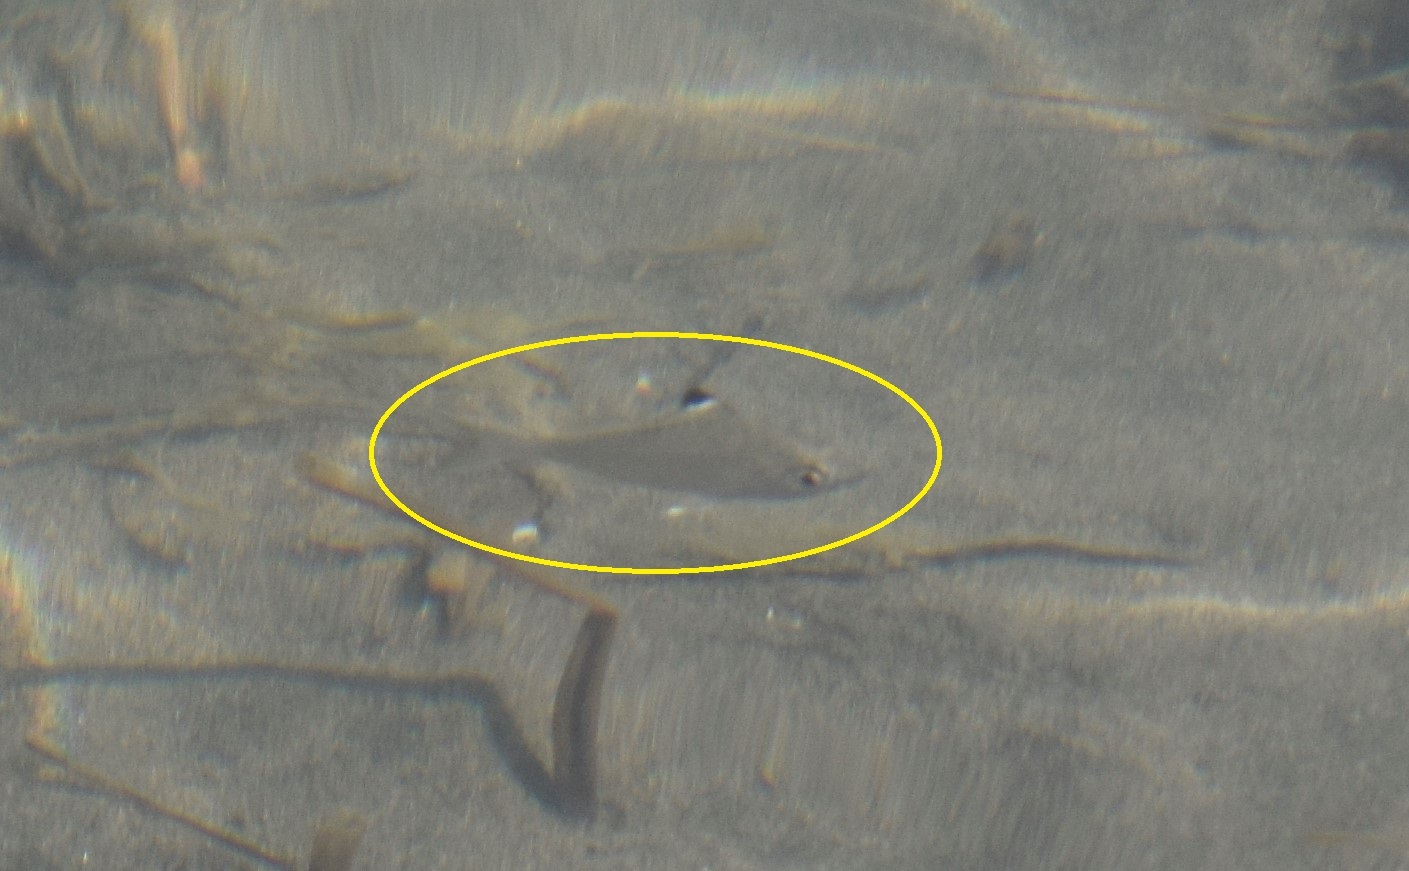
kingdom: Animalia
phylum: Chordata
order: Perciformes
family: Gerreidae
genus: Eucinostomus
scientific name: Eucinostomus melanopterus
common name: Flagfin mojarra
